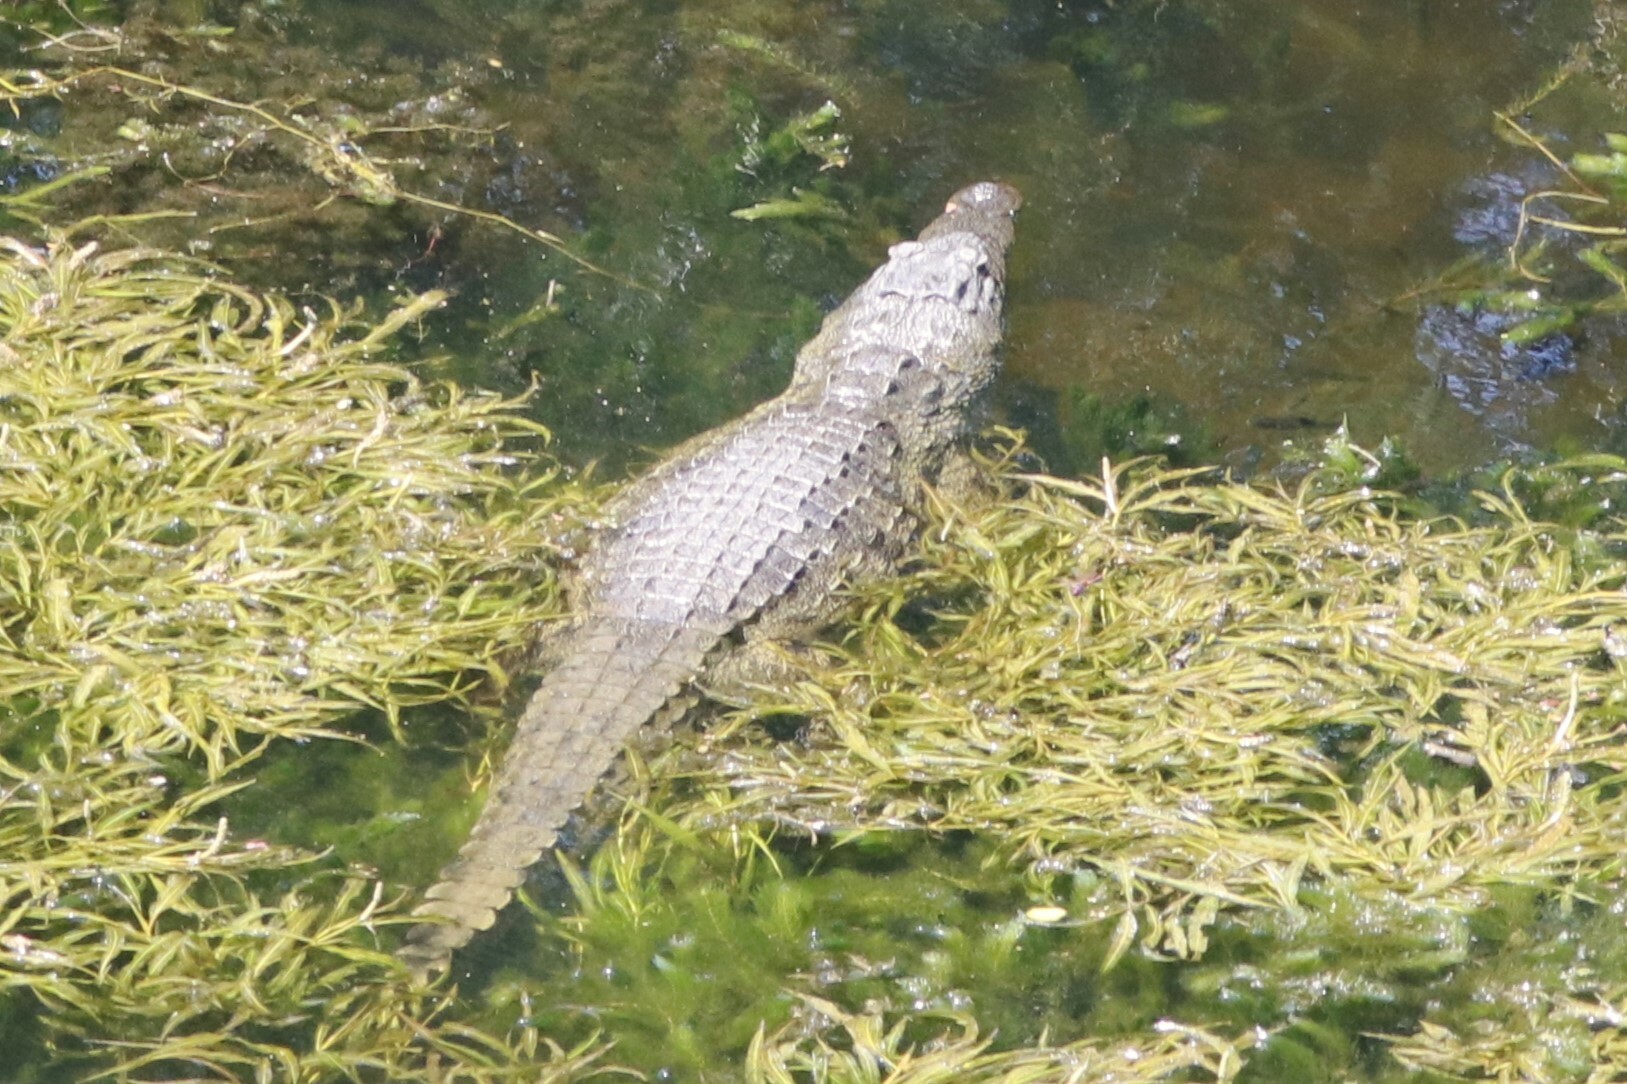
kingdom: Animalia
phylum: Chordata
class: Crocodylia
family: Crocodylidae
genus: Crocodylus
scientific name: Crocodylus niloticus
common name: Nile crocodile
